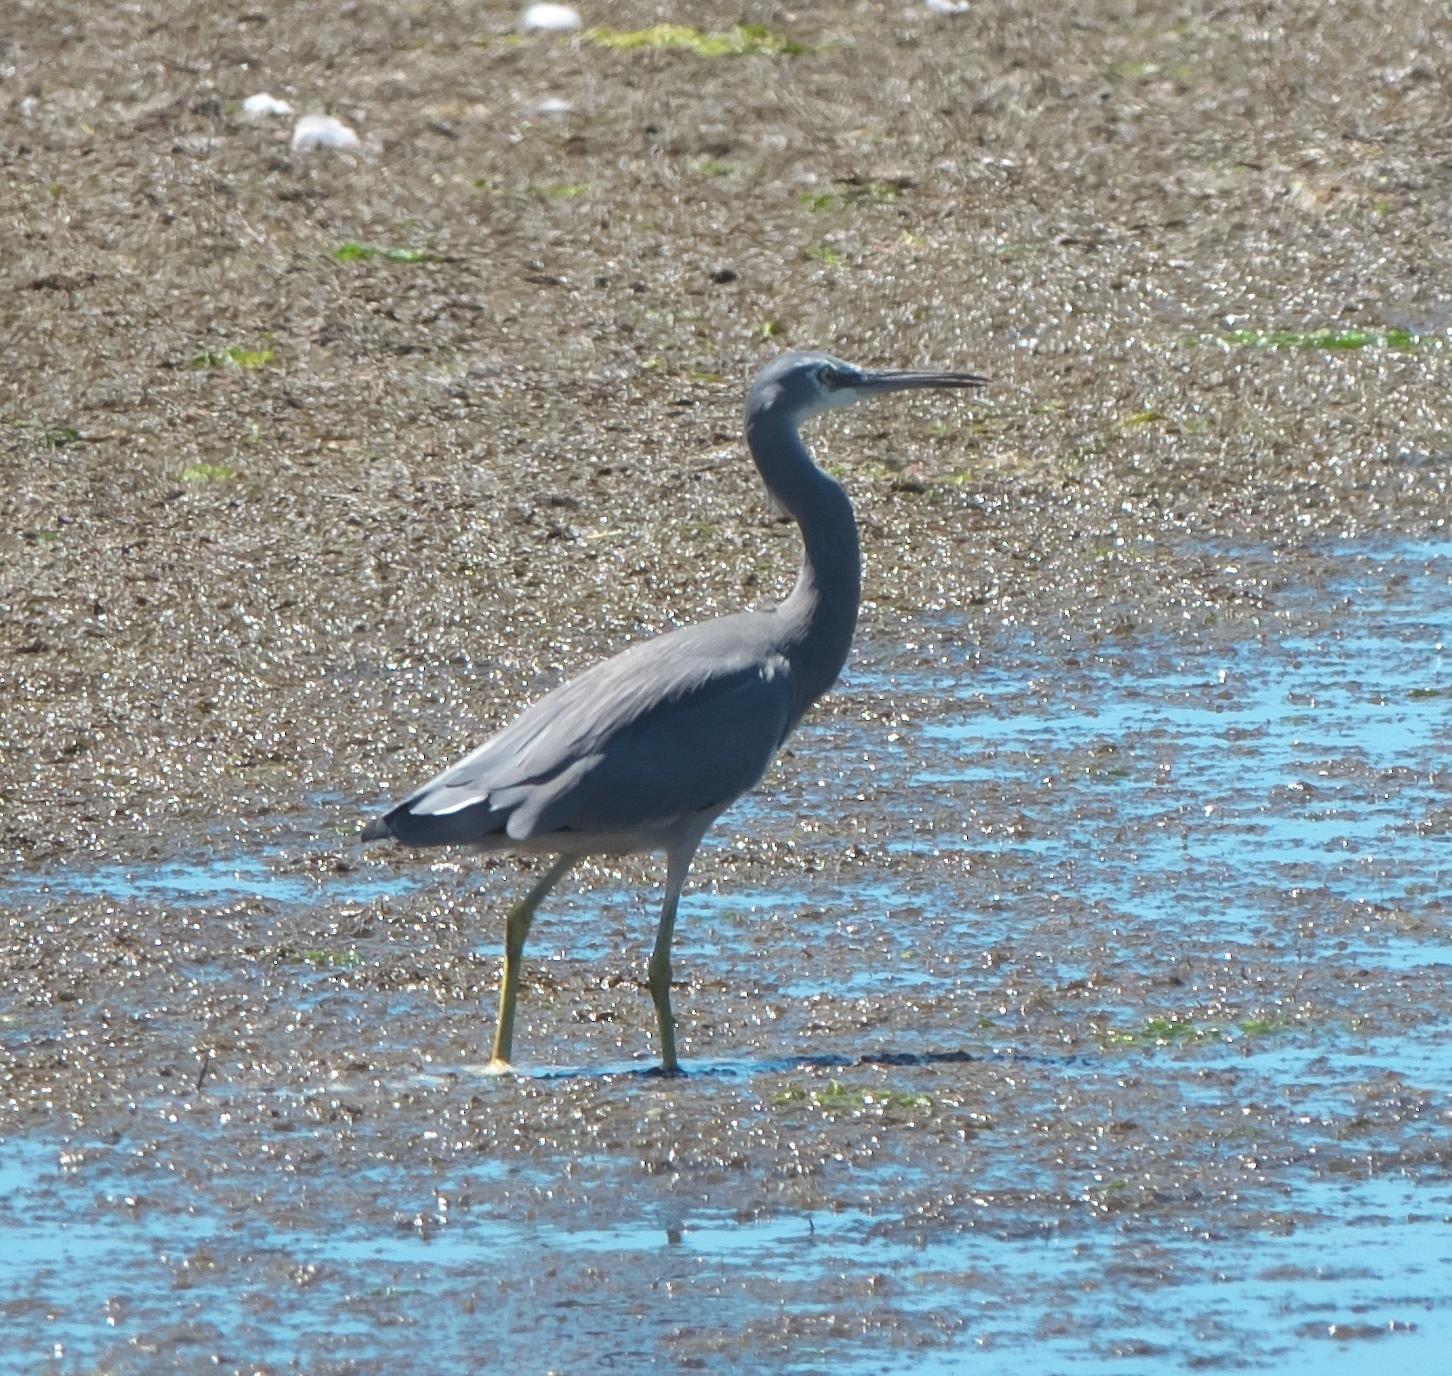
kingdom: Animalia
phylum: Chordata
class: Aves
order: Pelecaniformes
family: Ardeidae
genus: Egretta
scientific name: Egretta novaehollandiae
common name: White-faced heron
